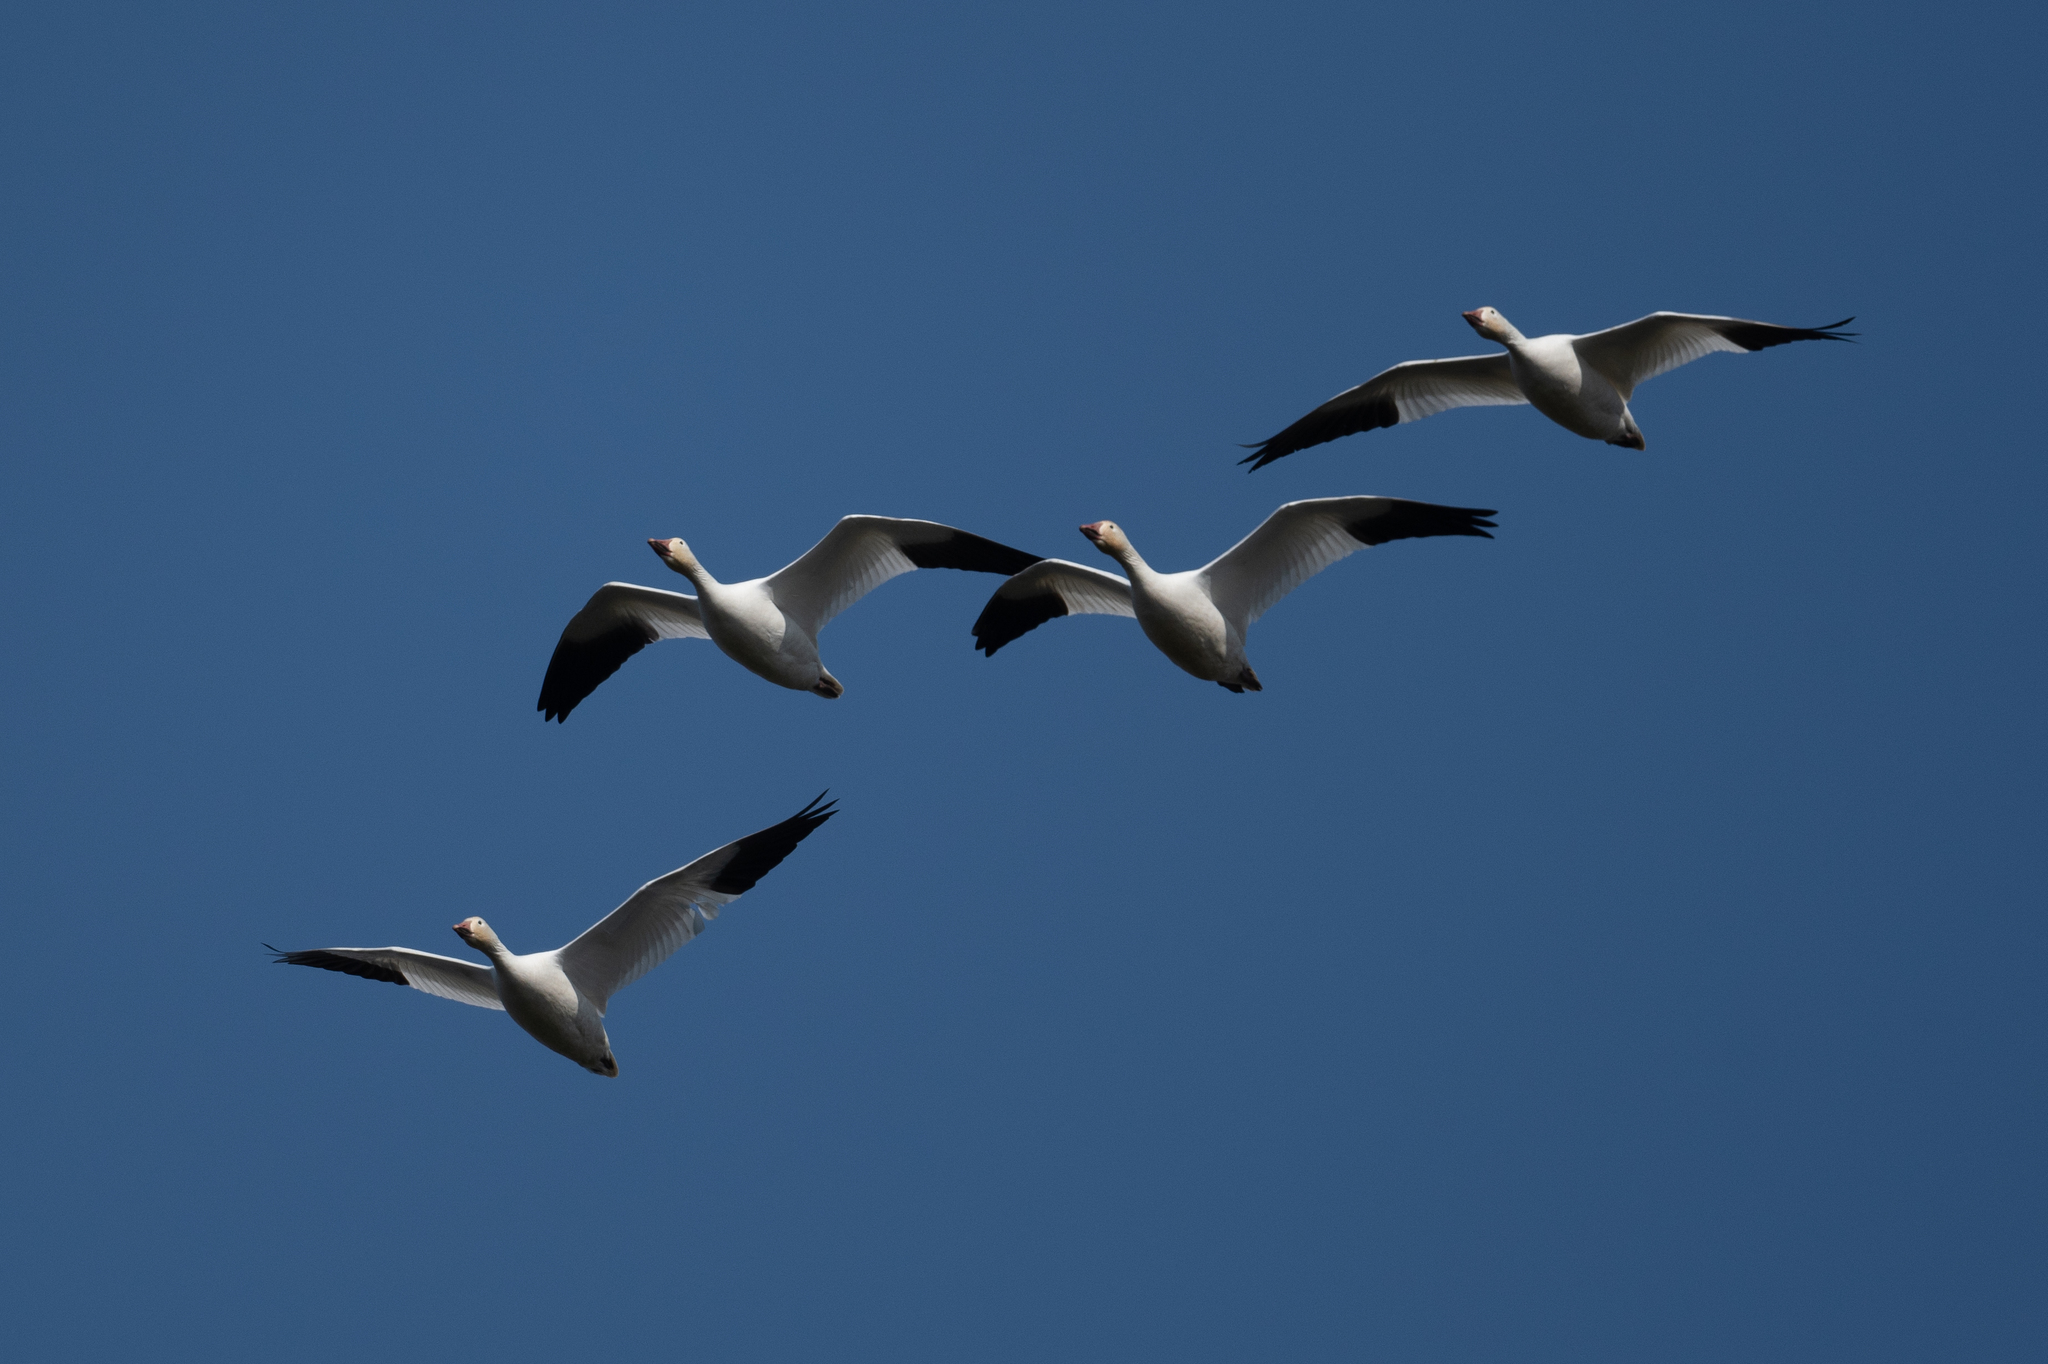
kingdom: Animalia
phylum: Chordata
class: Aves
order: Anseriformes
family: Anatidae
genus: Anser
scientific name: Anser caerulescens
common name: Snow goose
